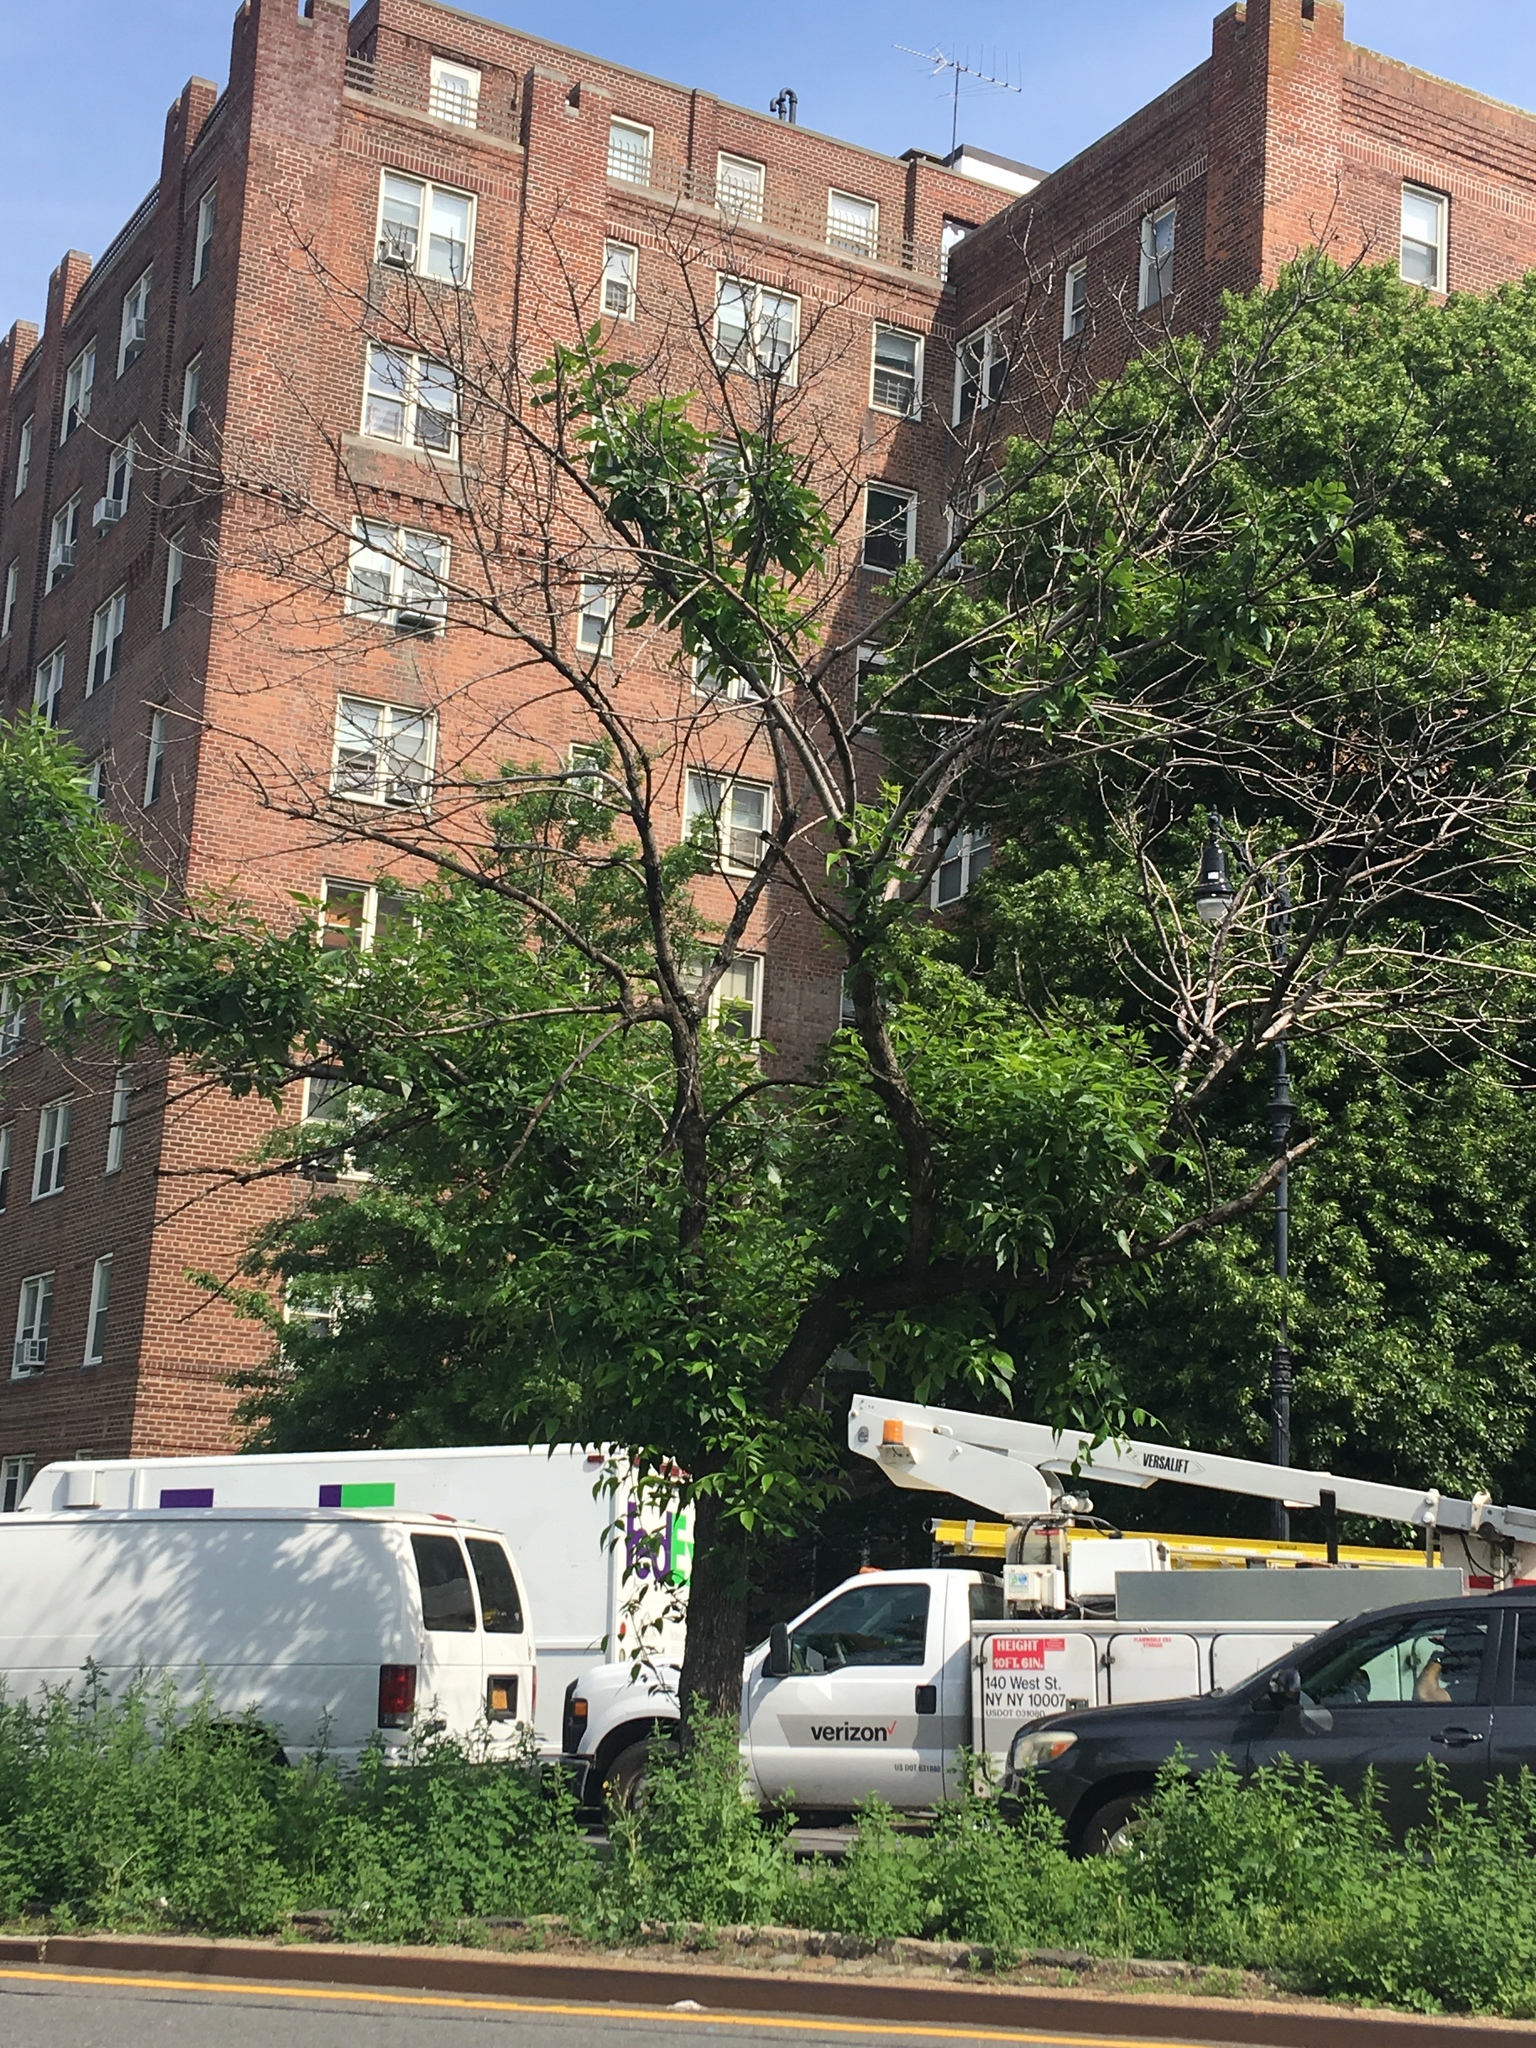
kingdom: Plantae
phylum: Tracheophyta
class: Magnoliopsida
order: Lamiales
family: Oleaceae
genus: Fraxinus
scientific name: Fraxinus pennsylvanica
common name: Green ash
